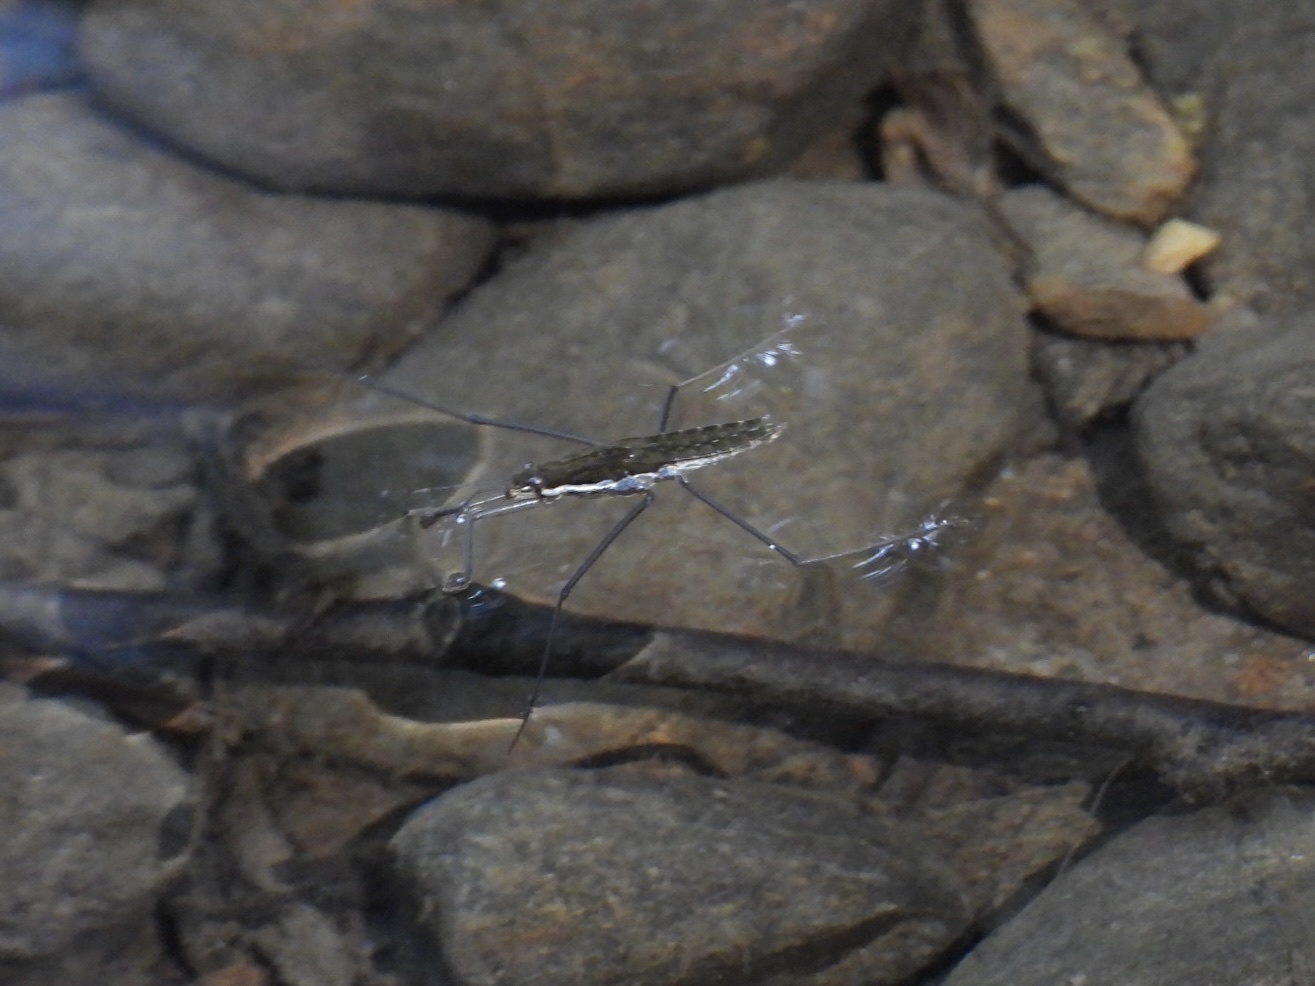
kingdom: Animalia
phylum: Arthropoda
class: Insecta
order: Hemiptera
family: Gerridae
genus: Aquarius
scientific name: Aquarius remigis
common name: Common water strider
